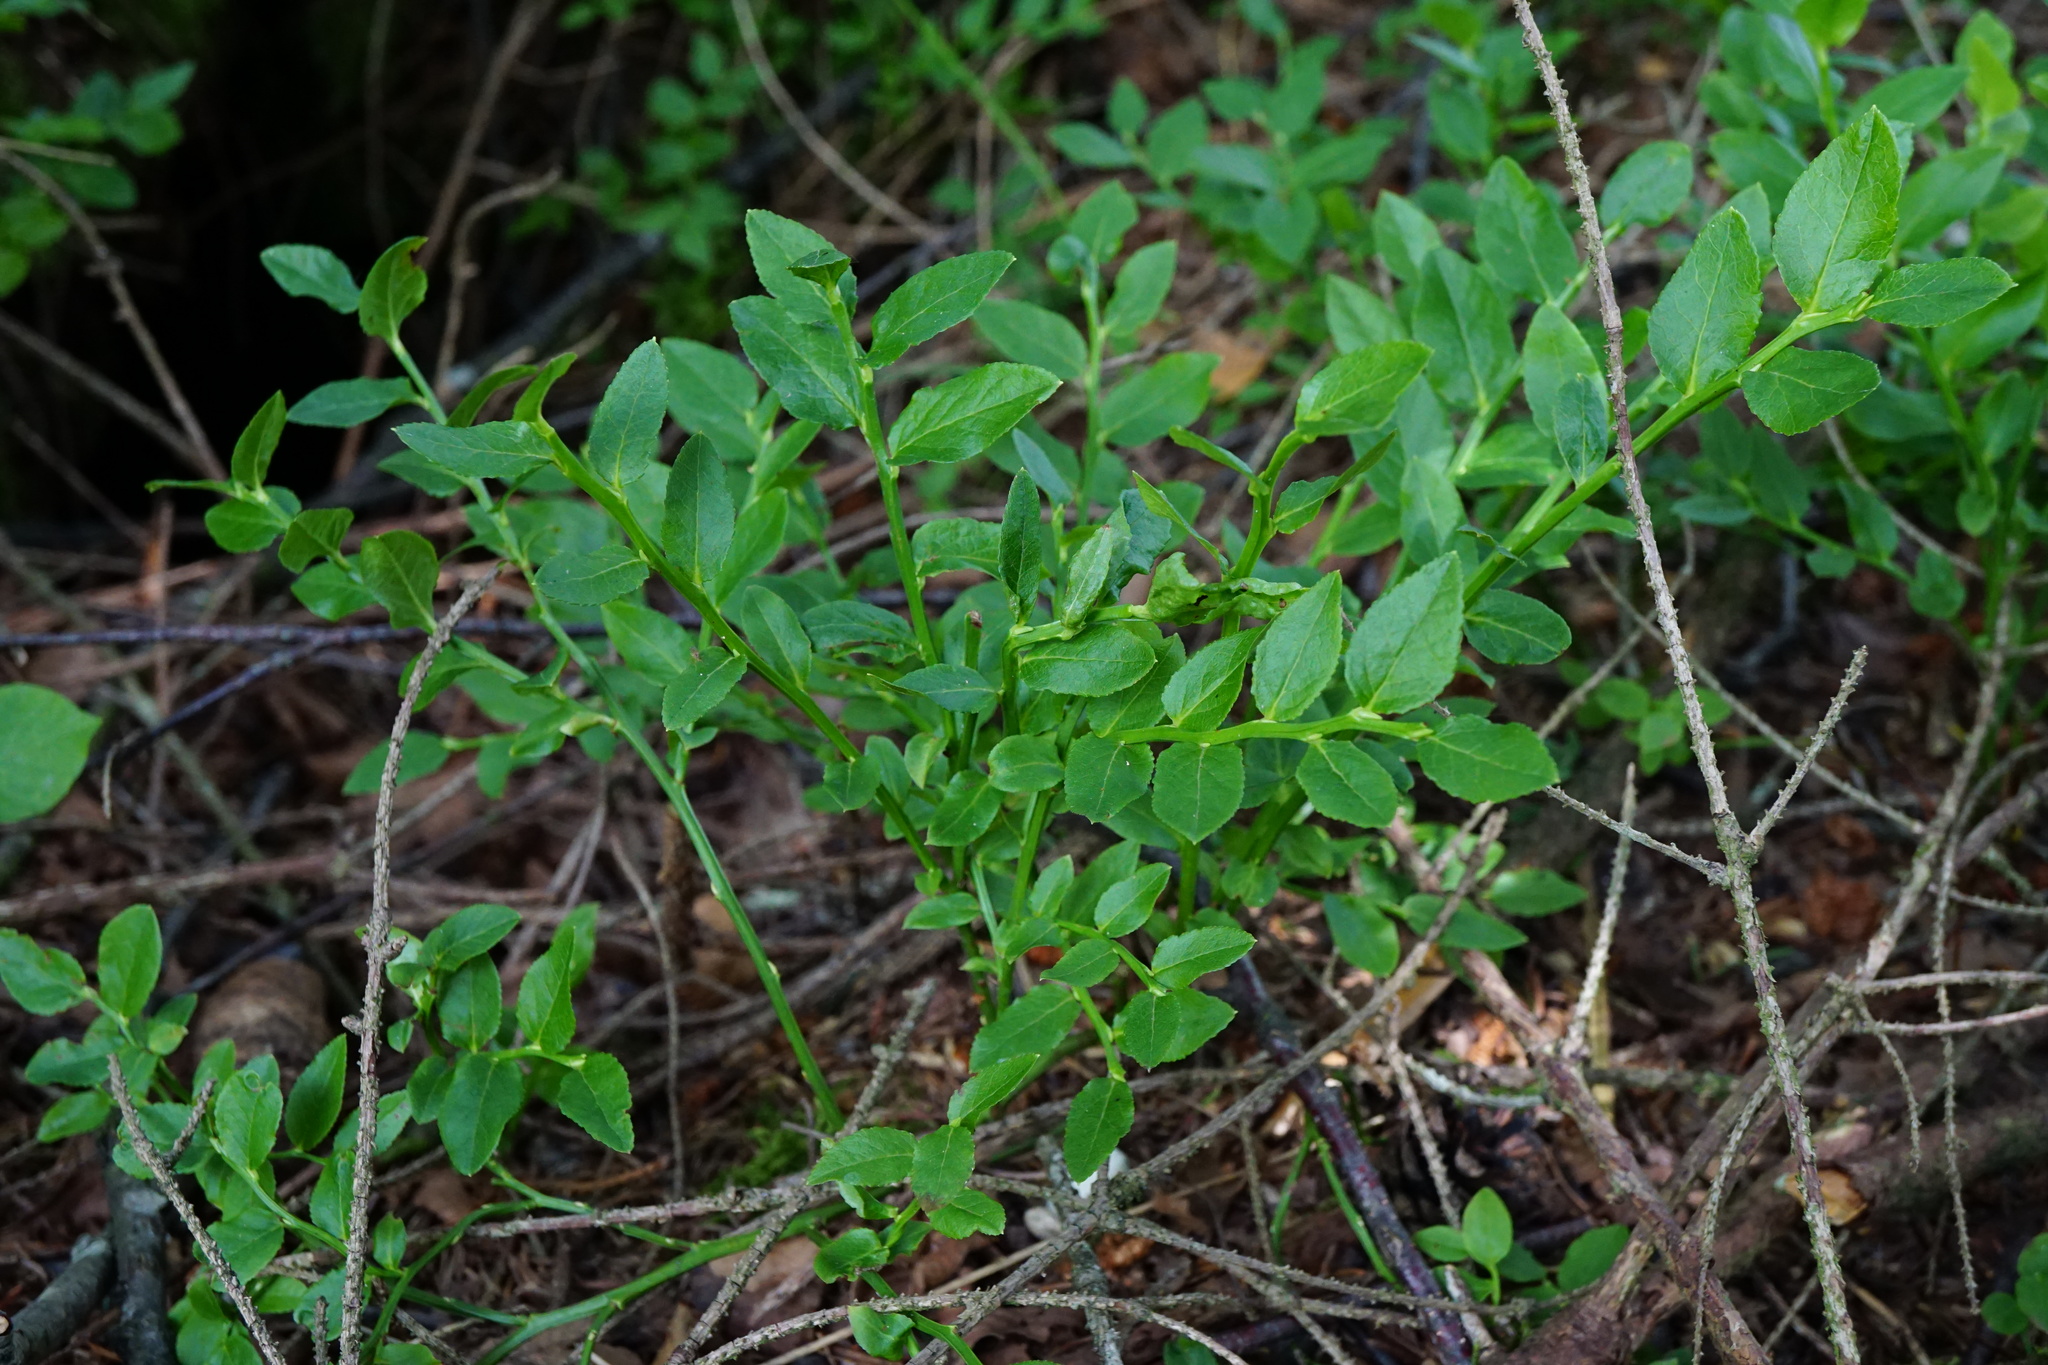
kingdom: Plantae
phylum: Tracheophyta
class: Magnoliopsida
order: Ericales
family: Ericaceae
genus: Vaccinium
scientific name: Vaccinium myrtillus
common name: Bilberry
